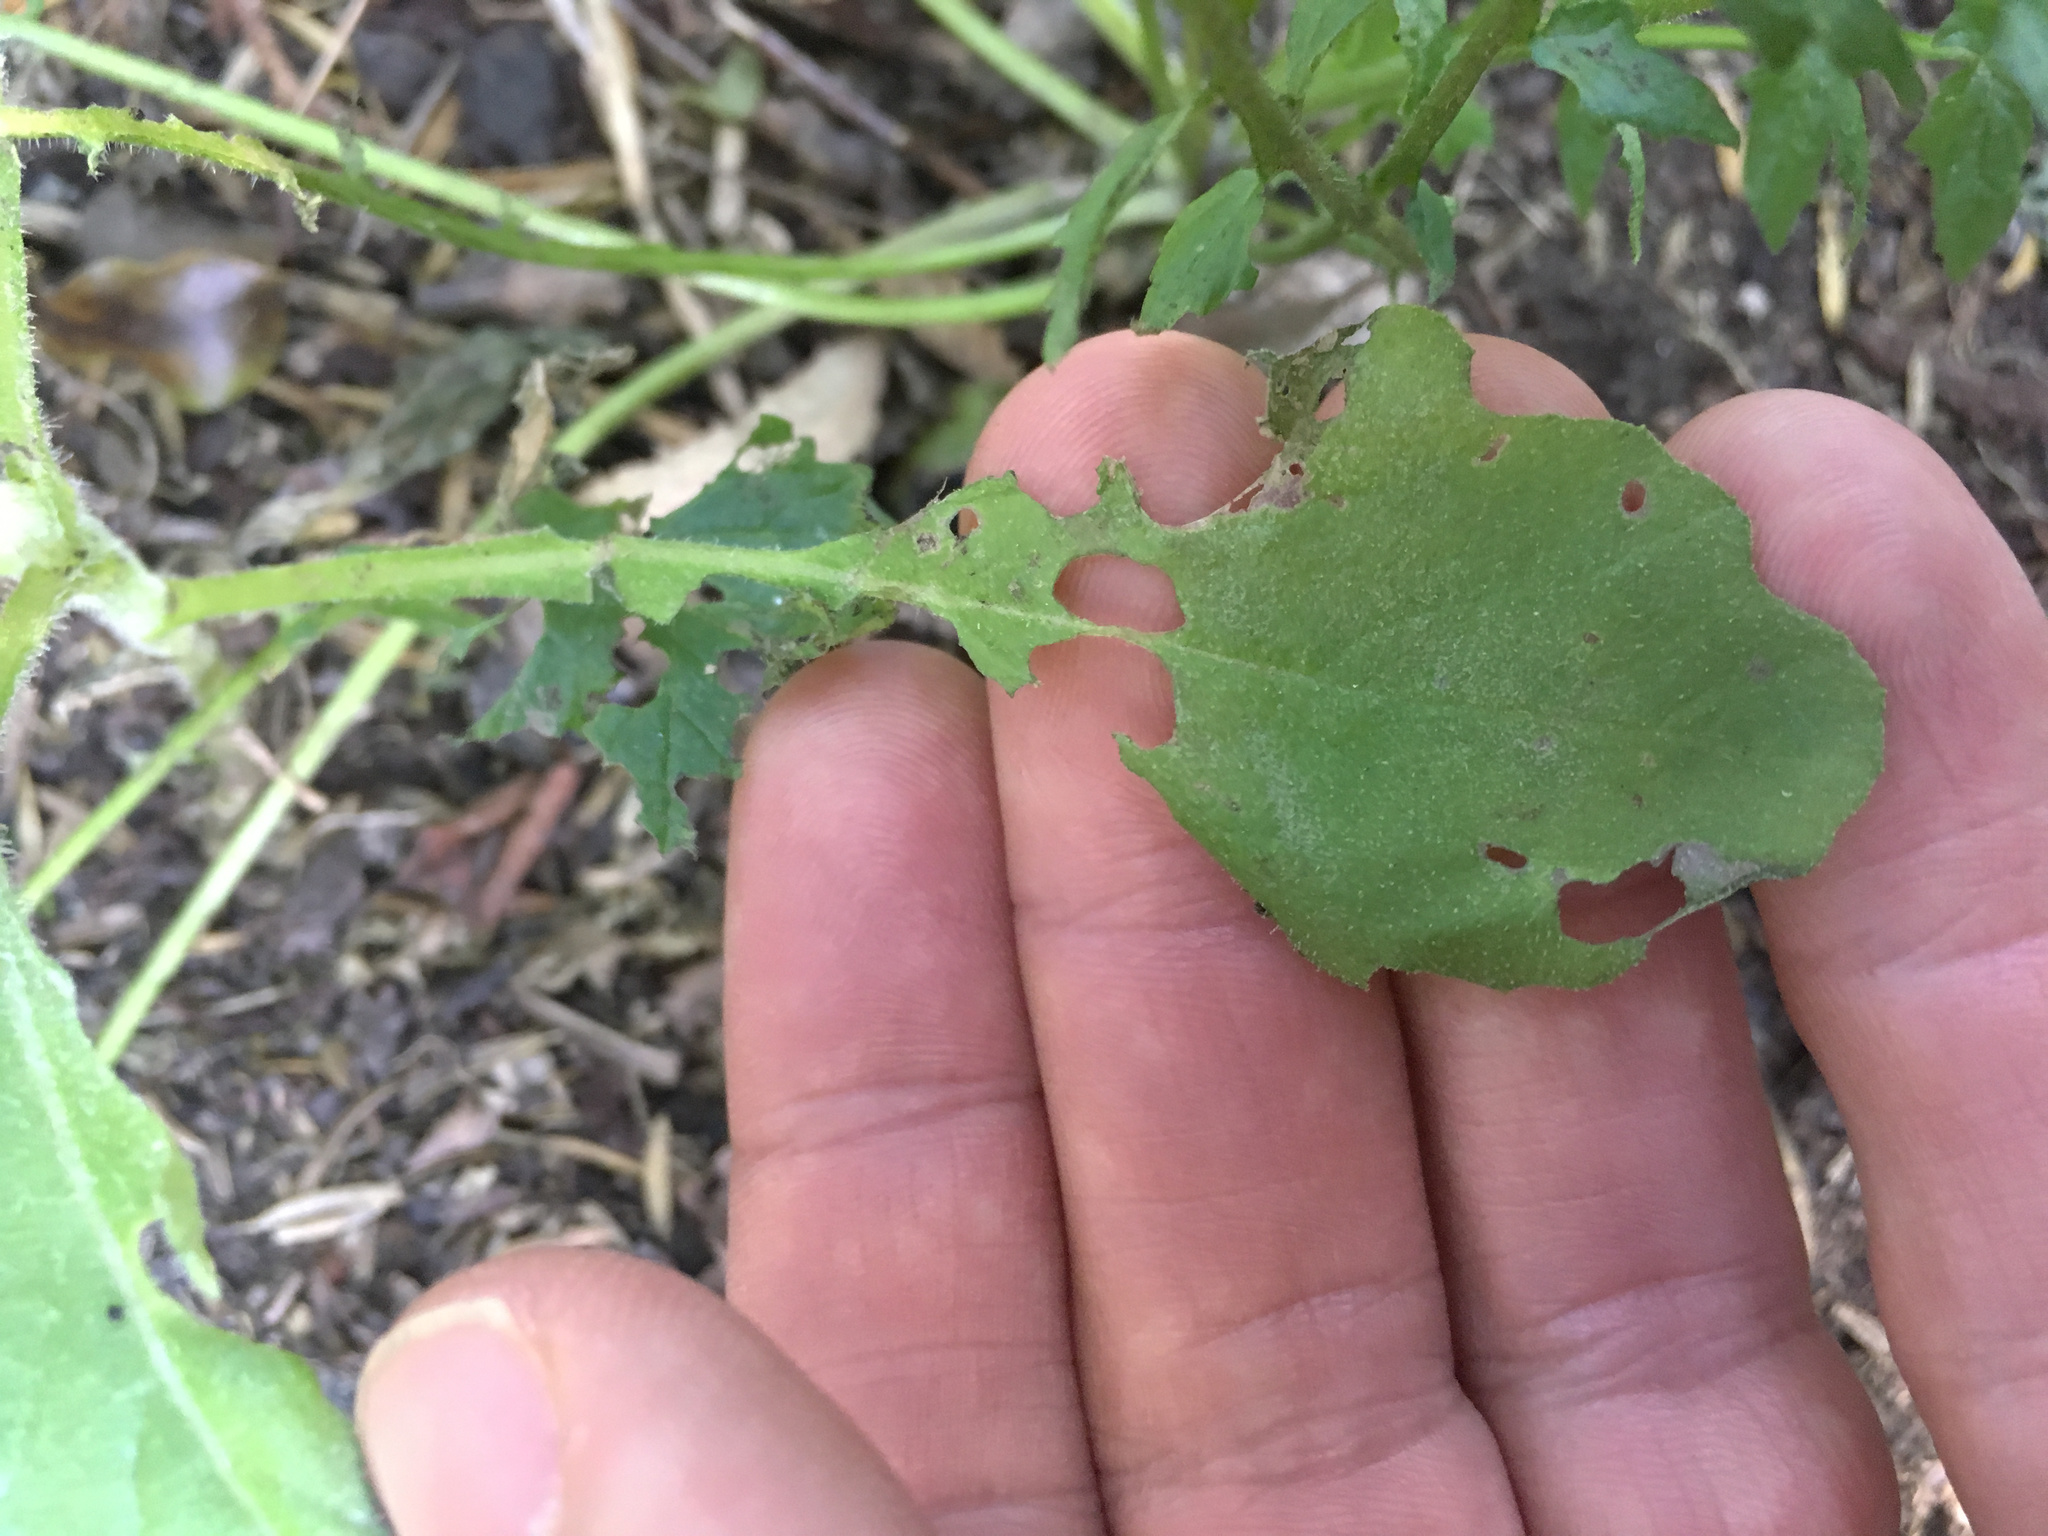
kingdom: Plantae
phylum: Tracheophyta
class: Magnoliopsida
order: Asterales
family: Asteraceae
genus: Senecio
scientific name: Senecio glomeratus
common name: Cutleaf burnweed
